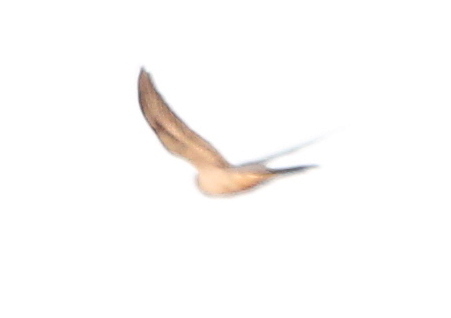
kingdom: Animalia
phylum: Chordata
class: Aves
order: Cuculiformes
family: Cuculidae
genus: Cuculus
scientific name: Cuculus canorus
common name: Common cuckoo
